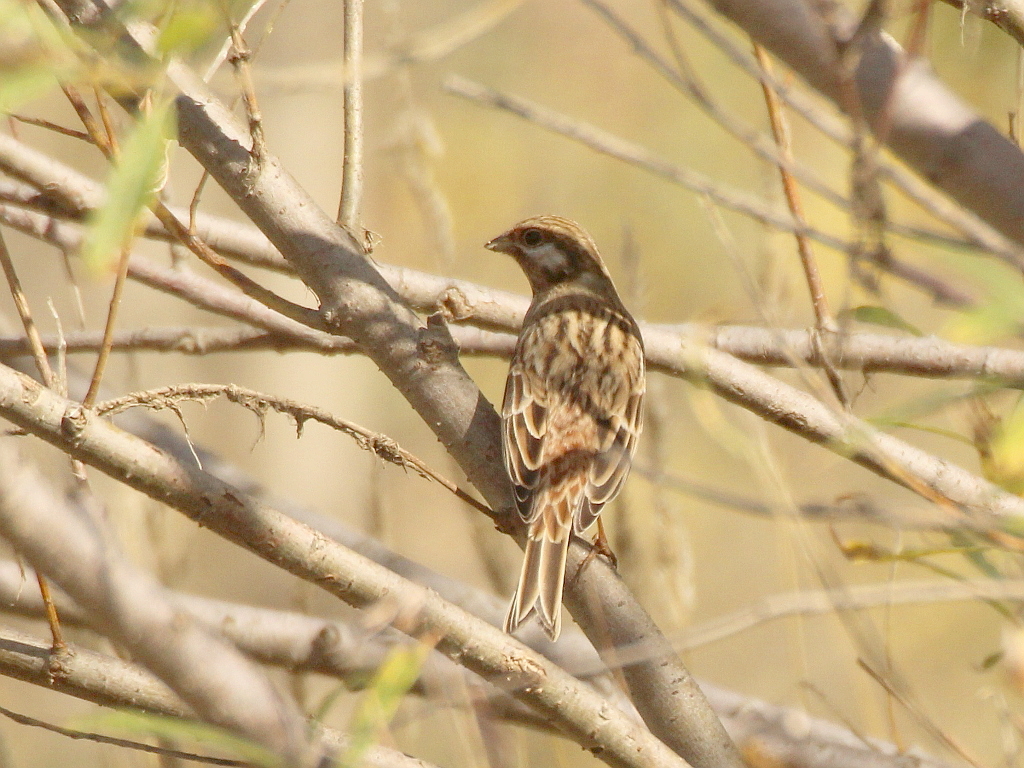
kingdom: Animalia
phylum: Chordata
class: Aves
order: Passeriformes
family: Emberizidae
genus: Emberiza
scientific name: Emberiza leucocephalos
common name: Pine bunting
